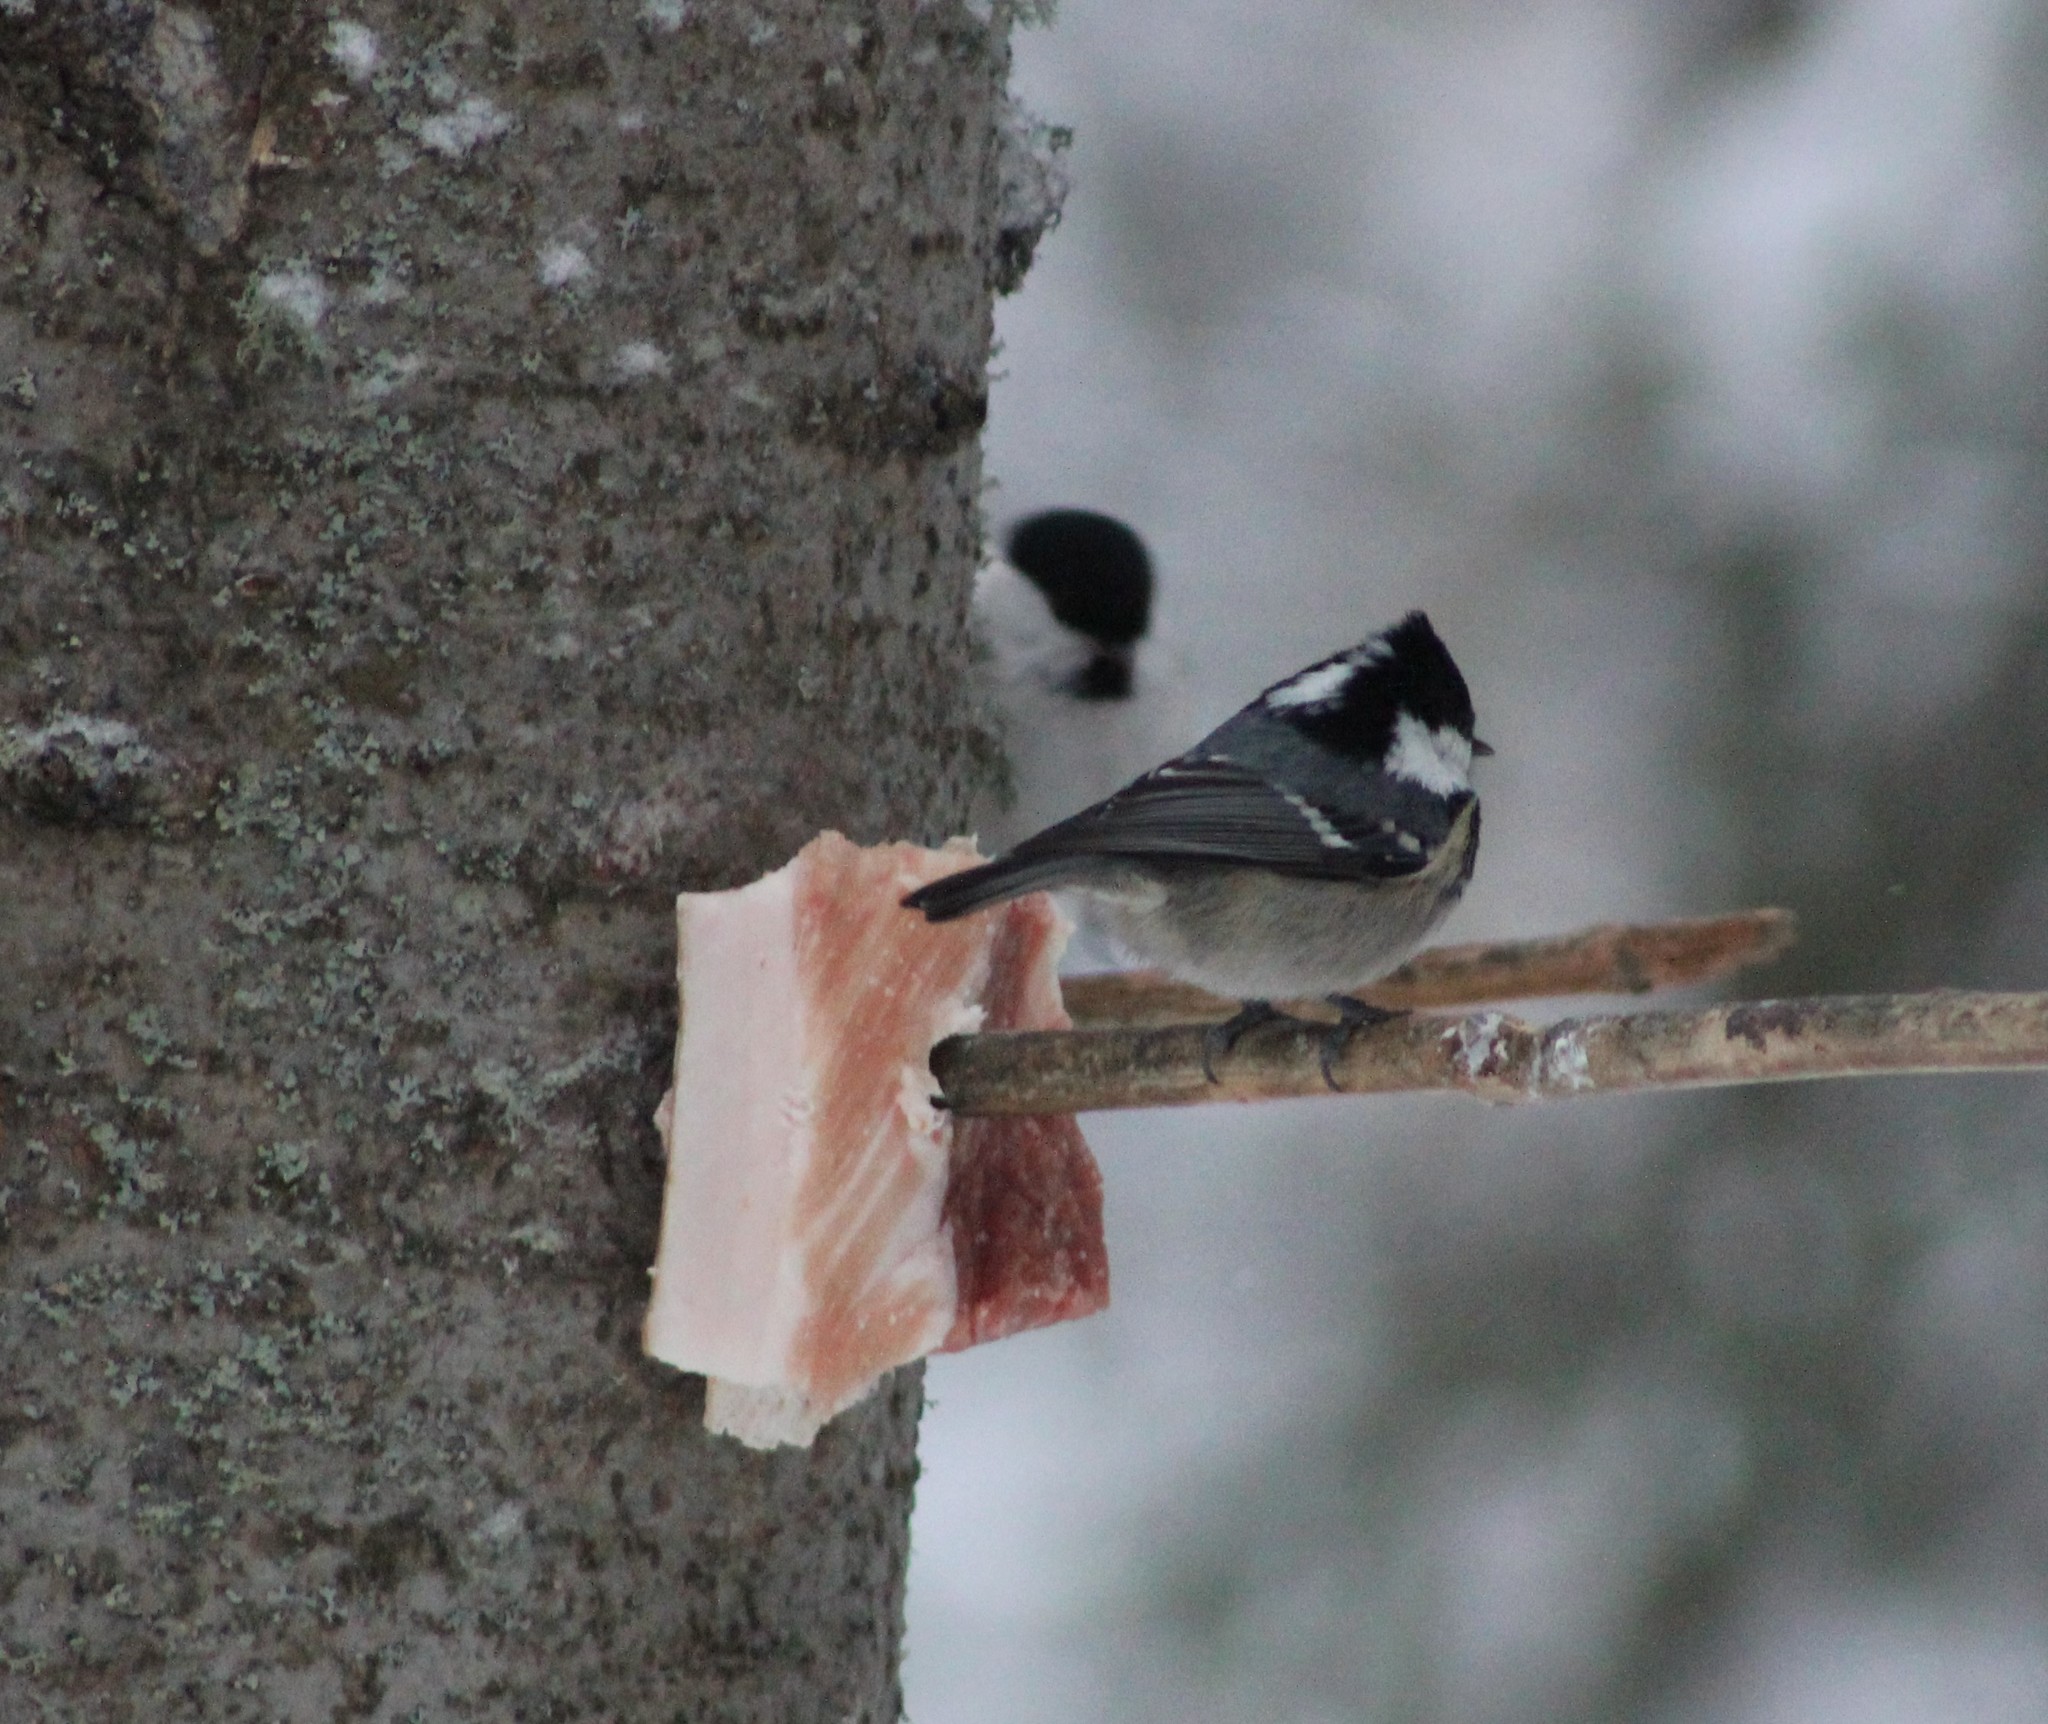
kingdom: Animalia
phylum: Chordata
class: Aves
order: Passeriformes
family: Paridae
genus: Periparus
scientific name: Periparus ater
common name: Coal tit
